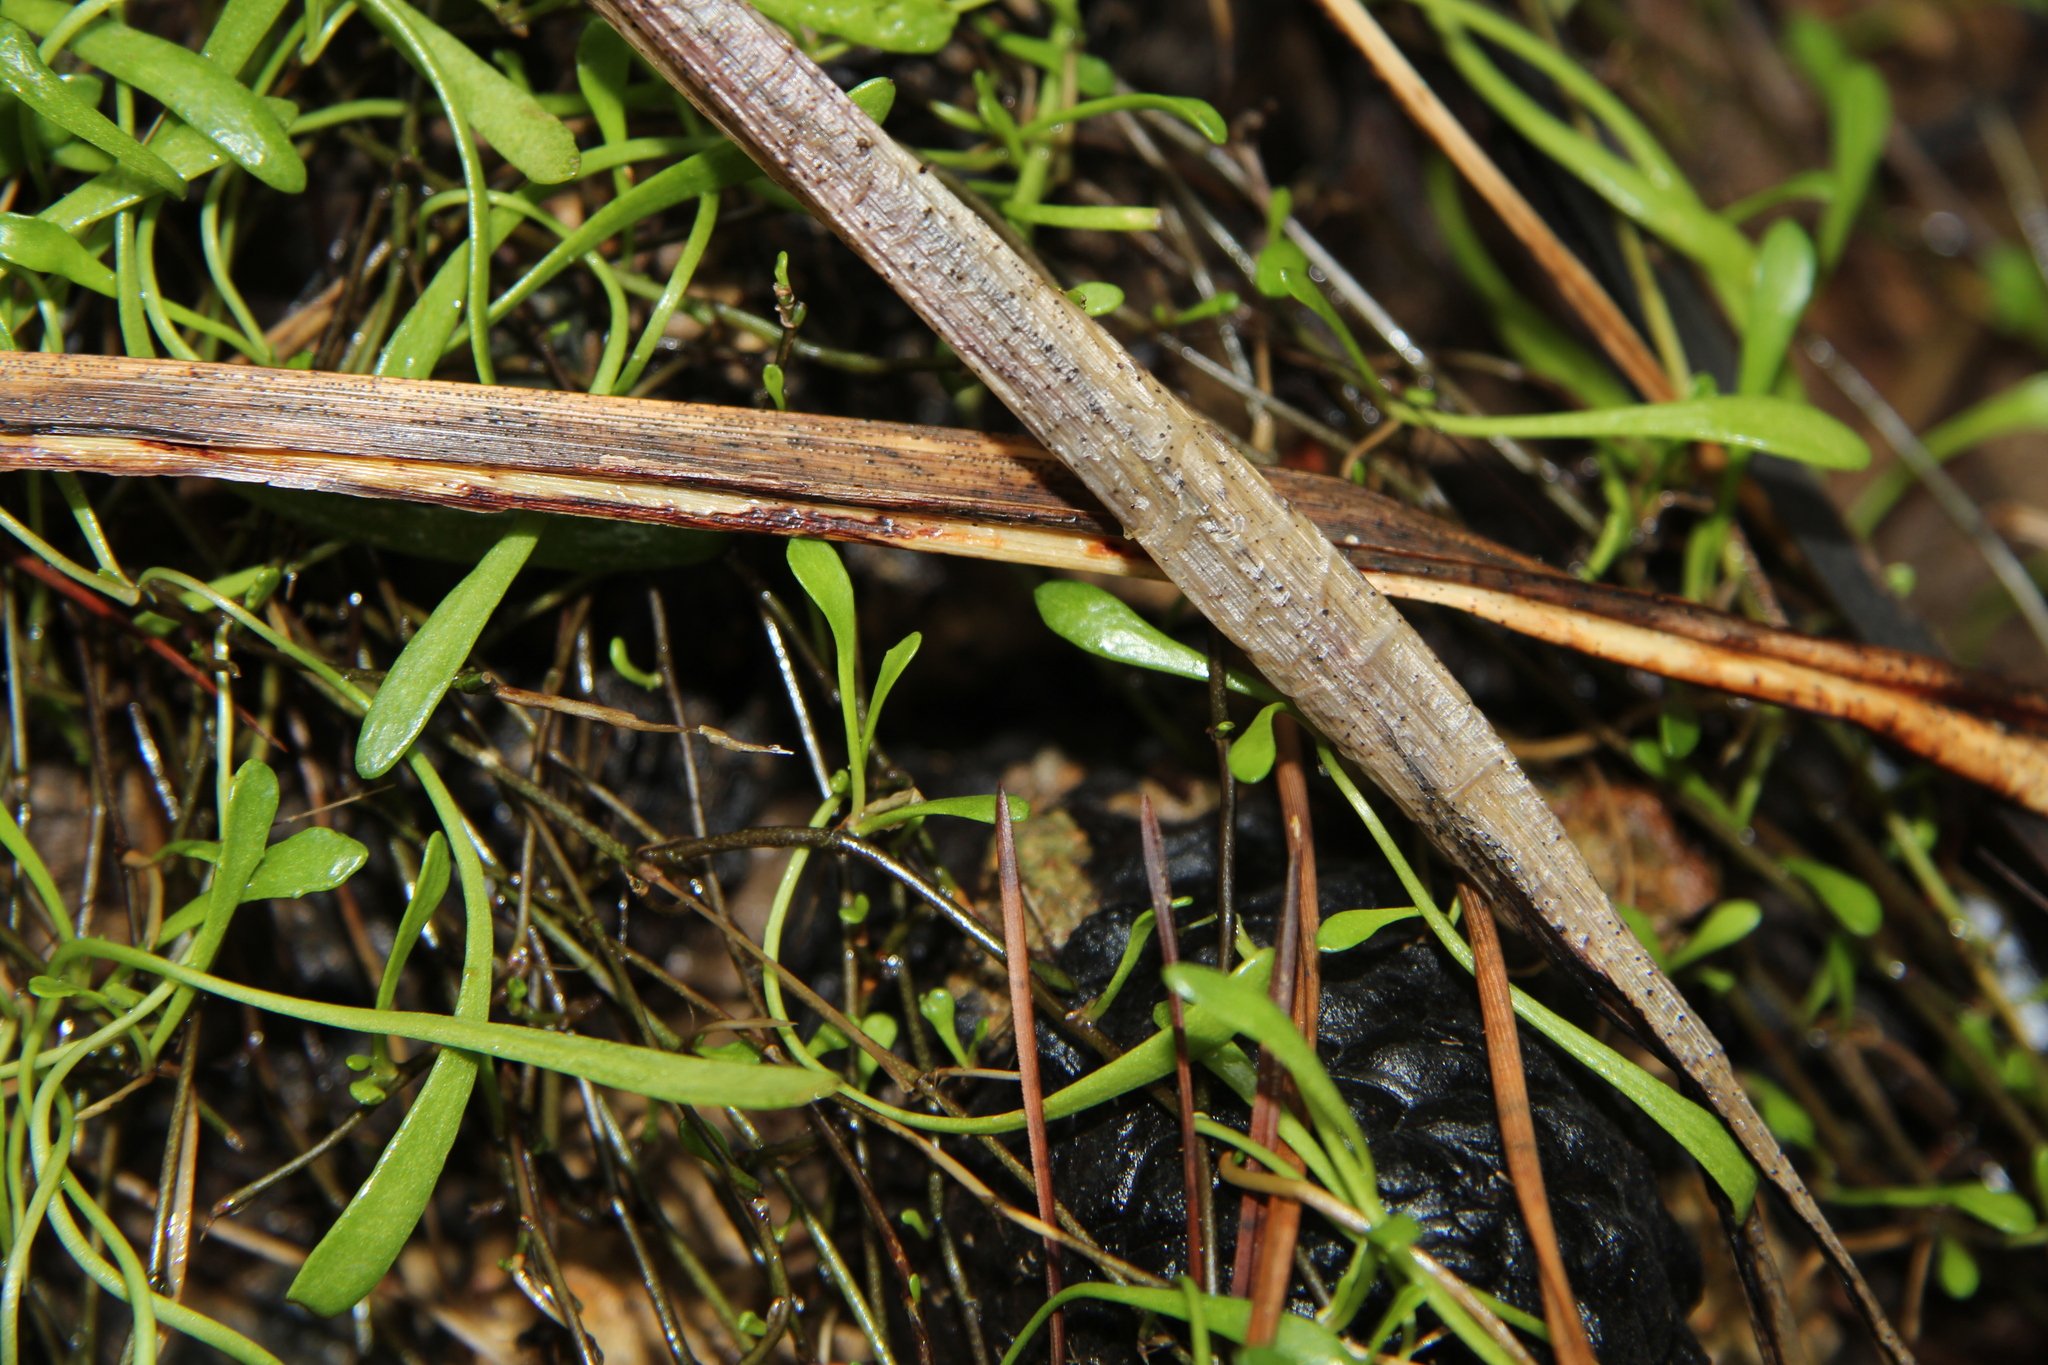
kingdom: Plantae
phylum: Tracheophyta
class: Magnoliopsida
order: Asterales
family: Goodeniaceae
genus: Goodenia
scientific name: Goodenia radicans
